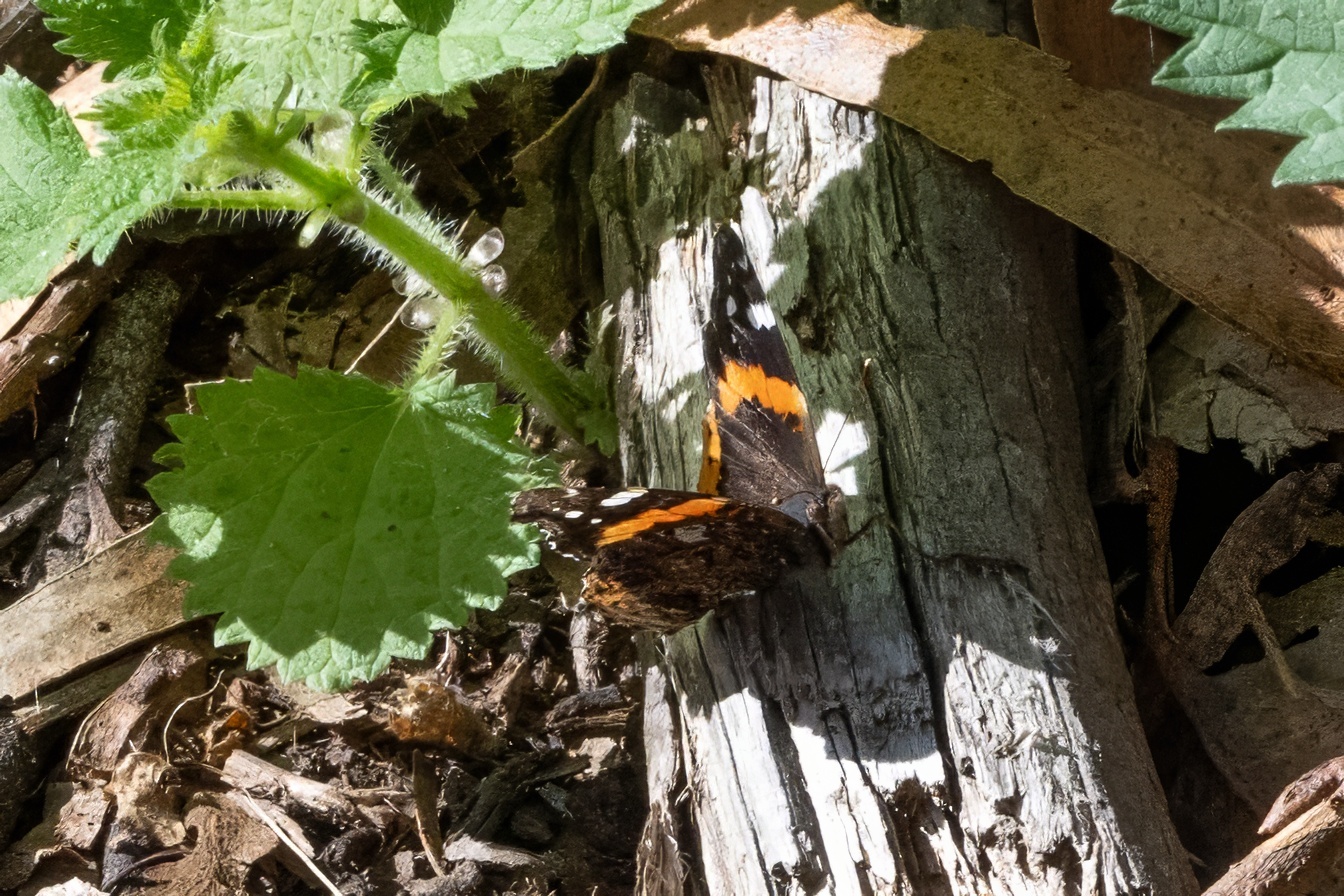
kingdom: Animalia
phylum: Arthropoda
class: Insecta
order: Lepidoptera
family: Nymphalidae
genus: Vanessa
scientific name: Vanessa atalanta
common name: Red admiral
